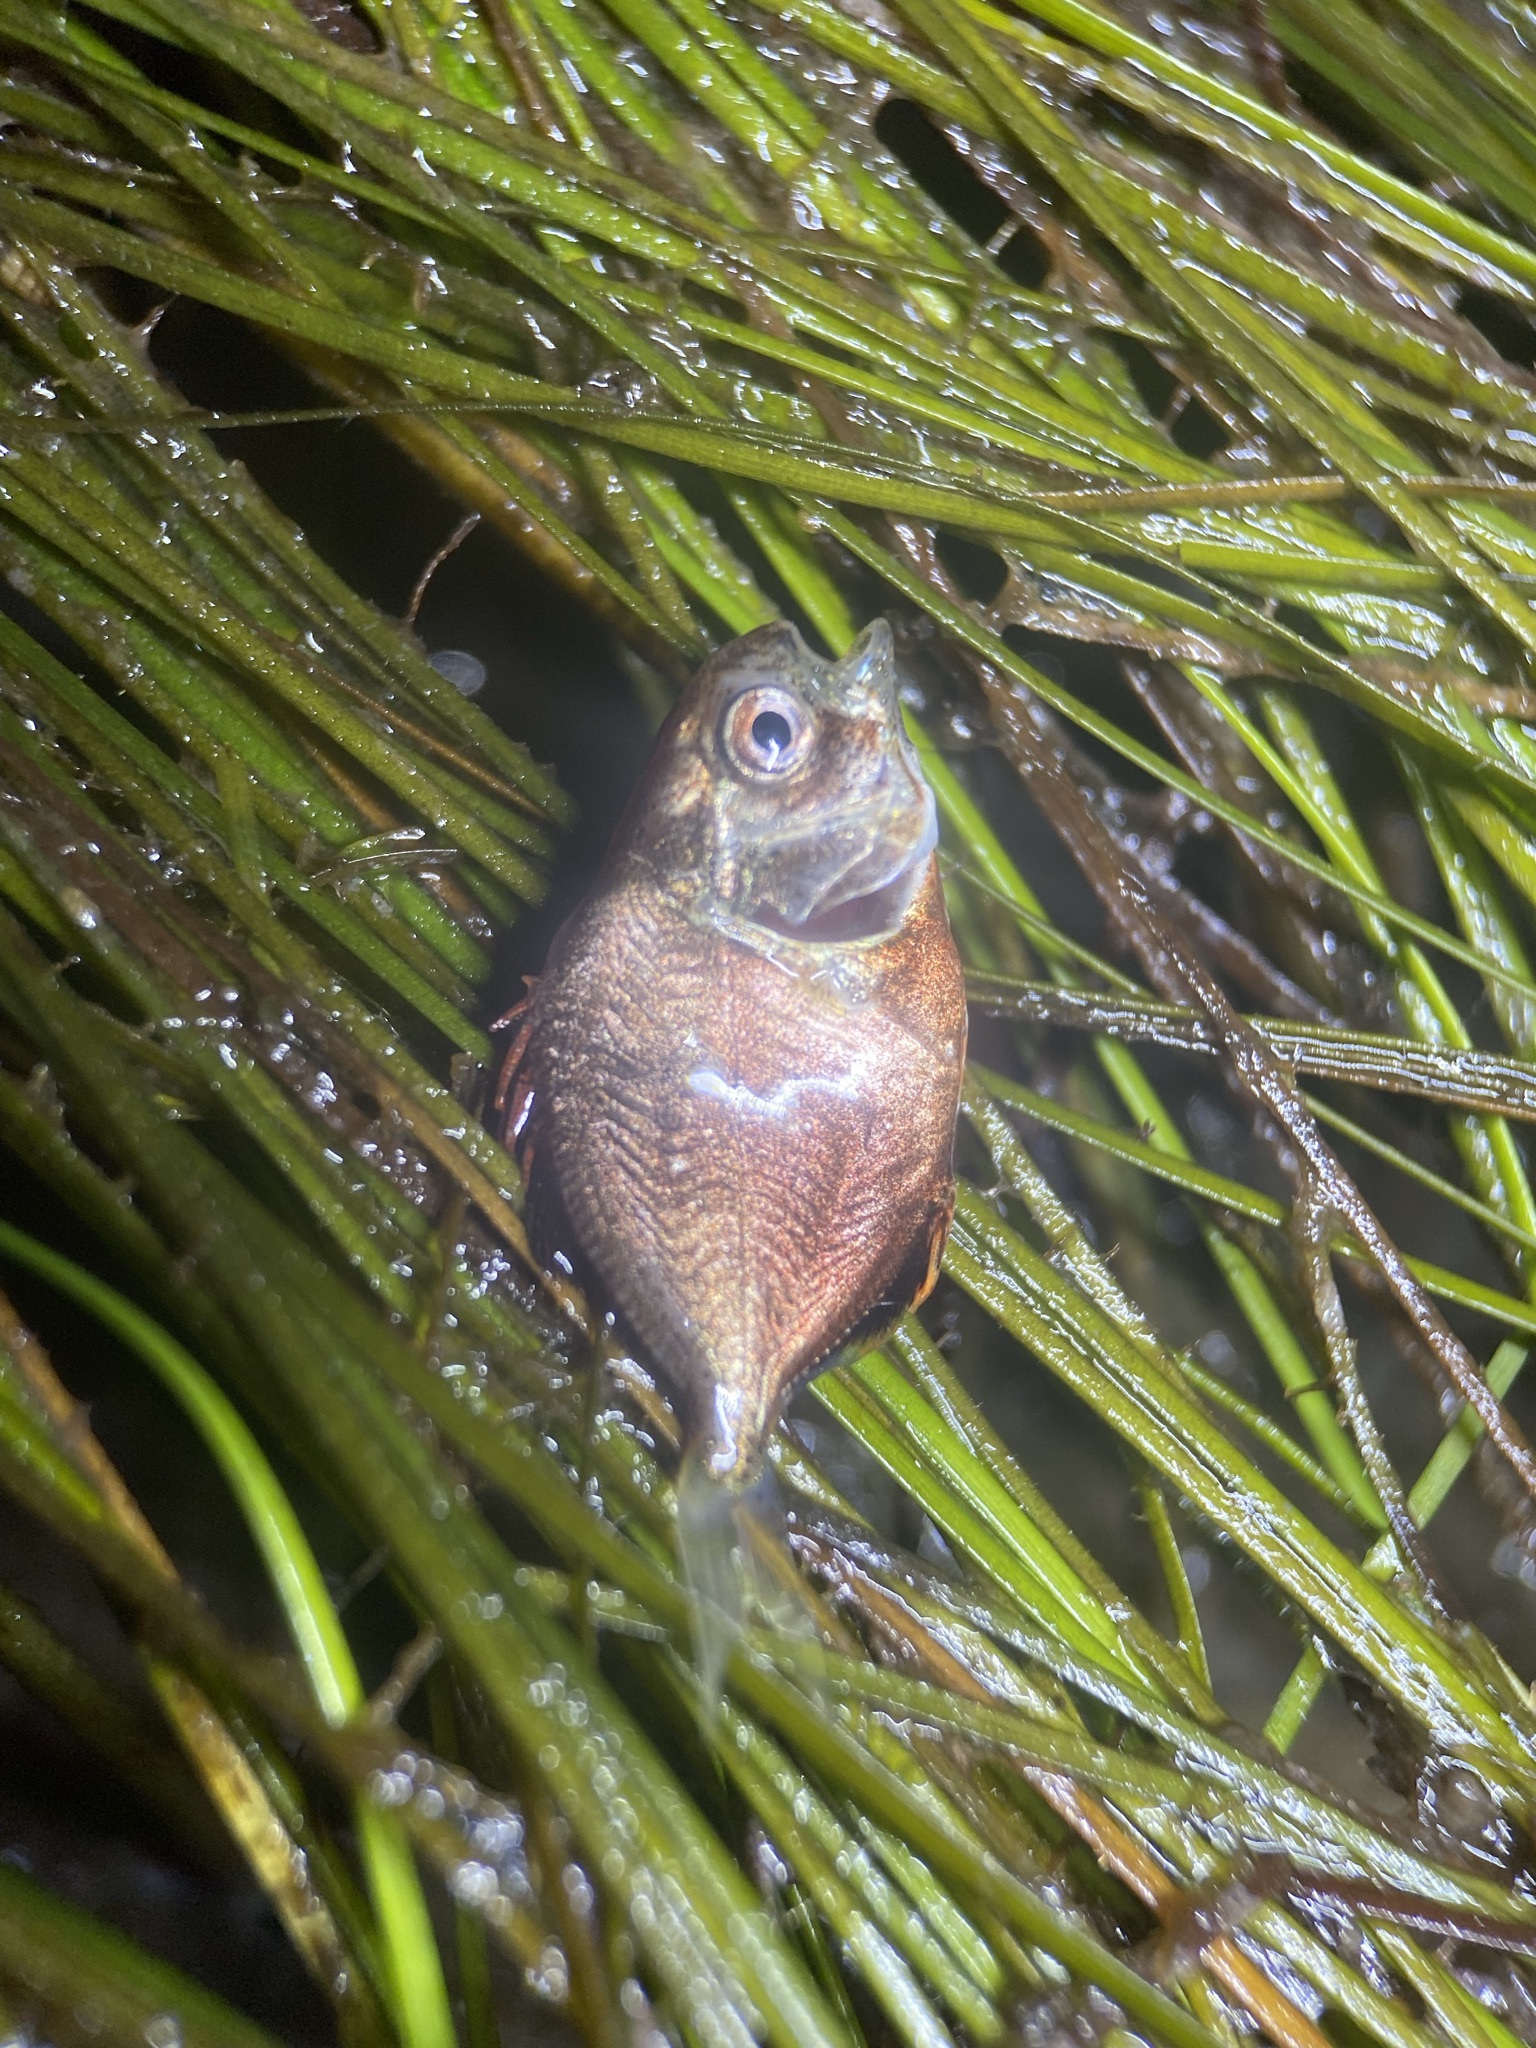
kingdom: Animalia
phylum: Chordata
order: Perciformes
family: Carangidae
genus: Trachinotus
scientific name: Trachinotus falcatus
